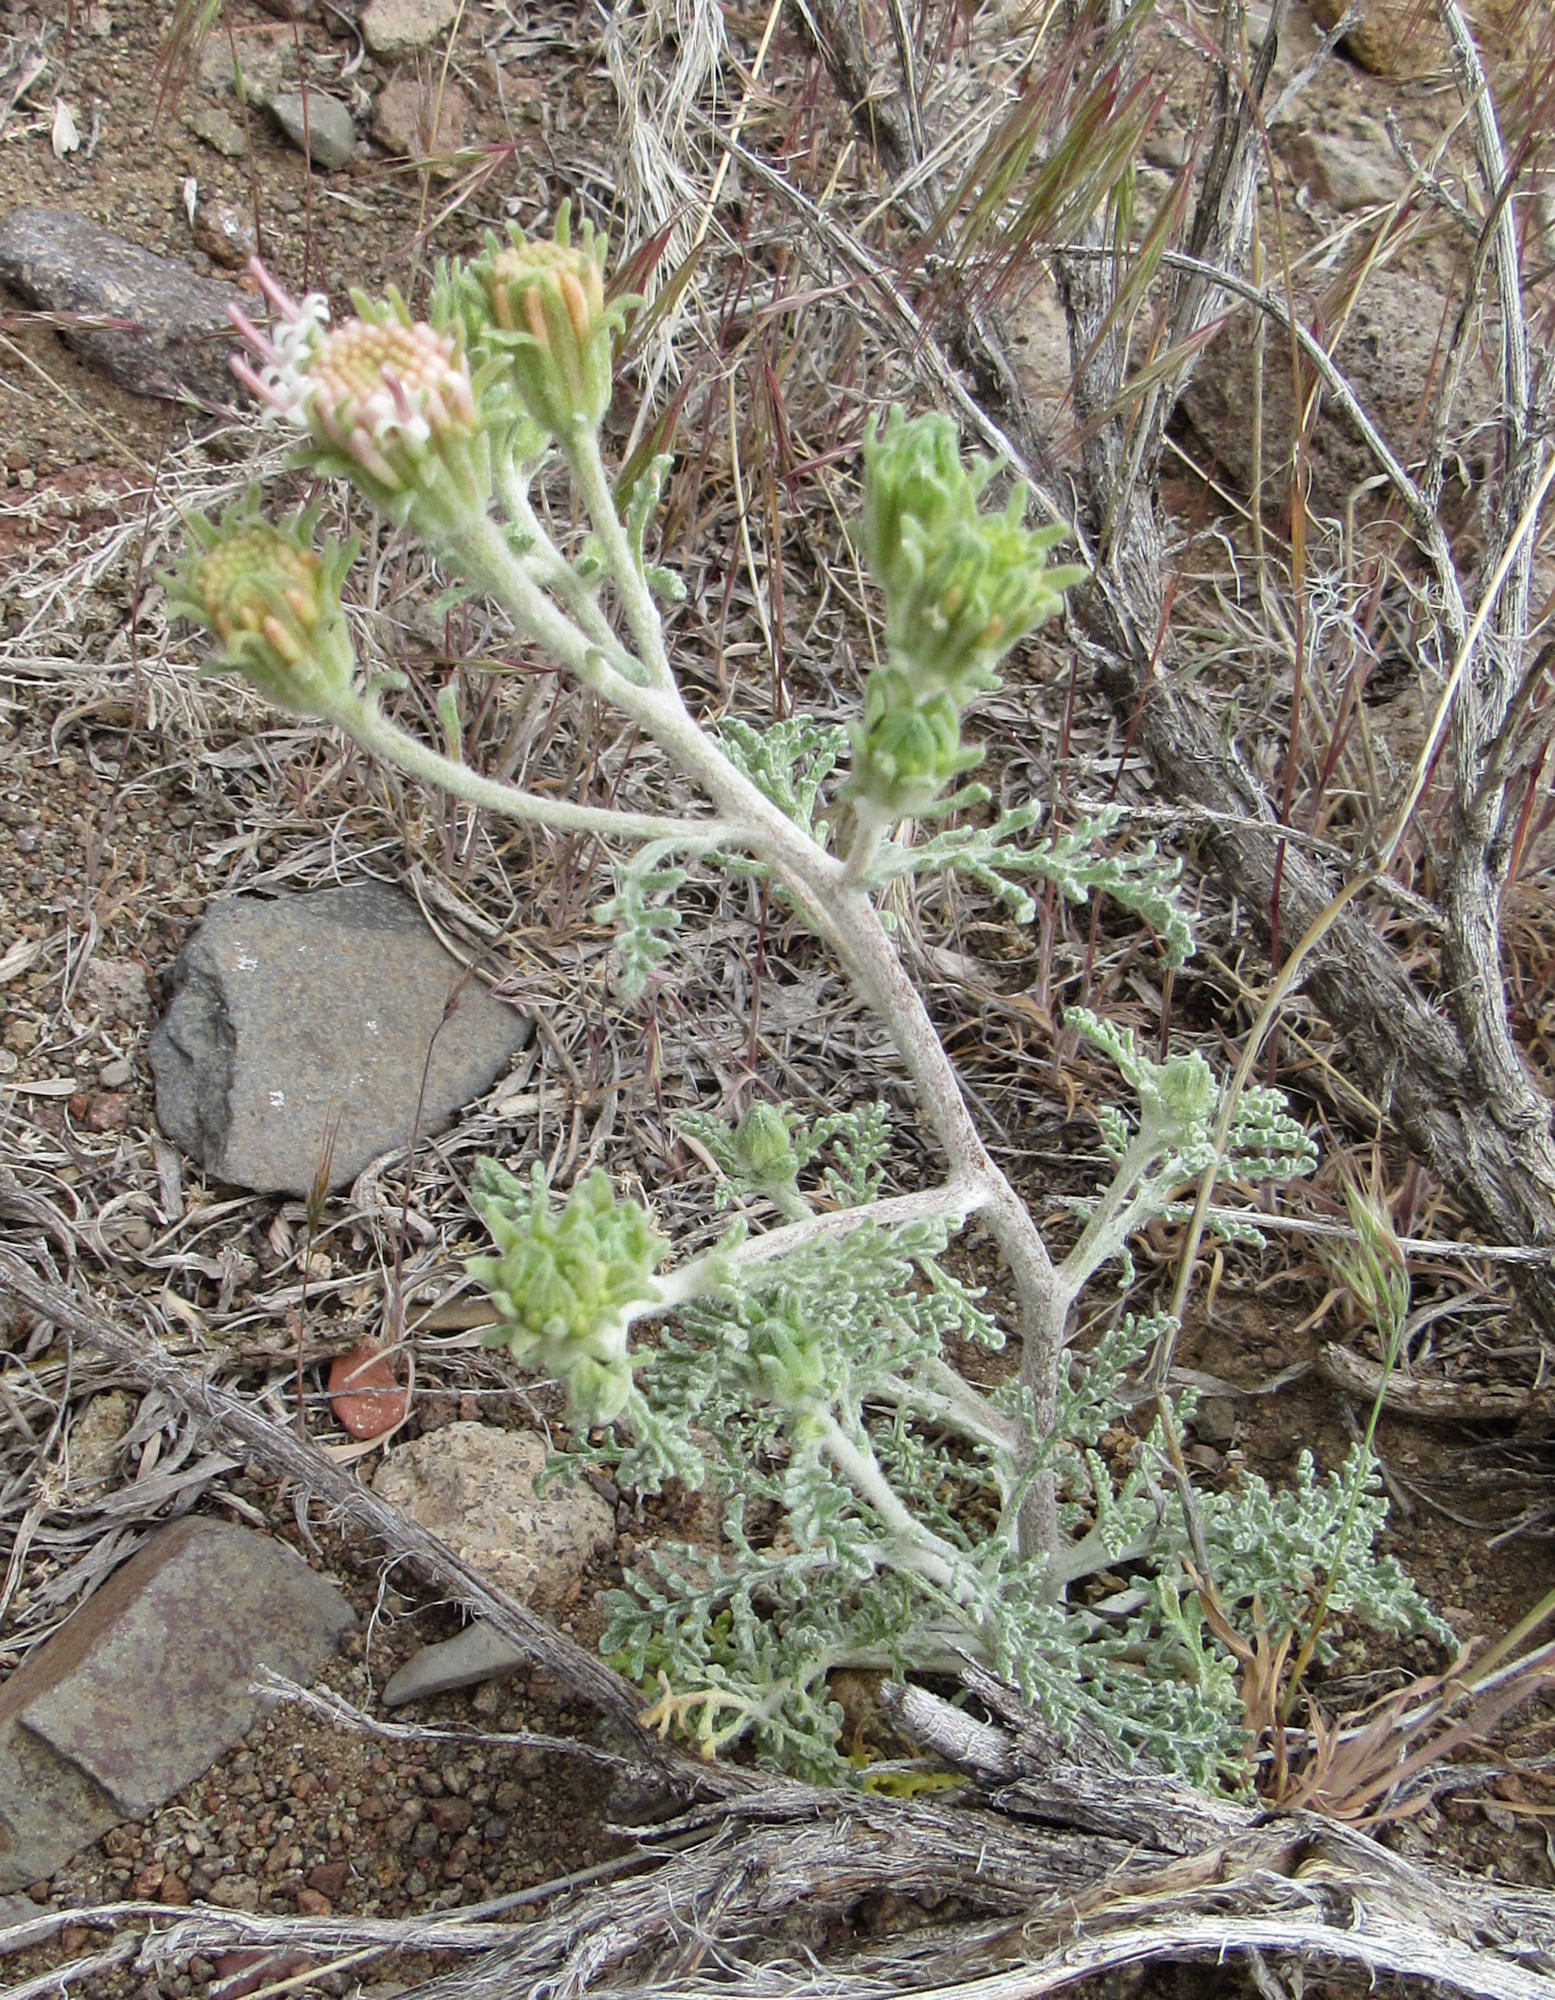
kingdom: Plantae
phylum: Tracheophyta
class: Magnoliopsida
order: Asterales
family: Asteraceae
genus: Chaenactis
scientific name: Chaenactis douglasii
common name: Hoary pincushion
